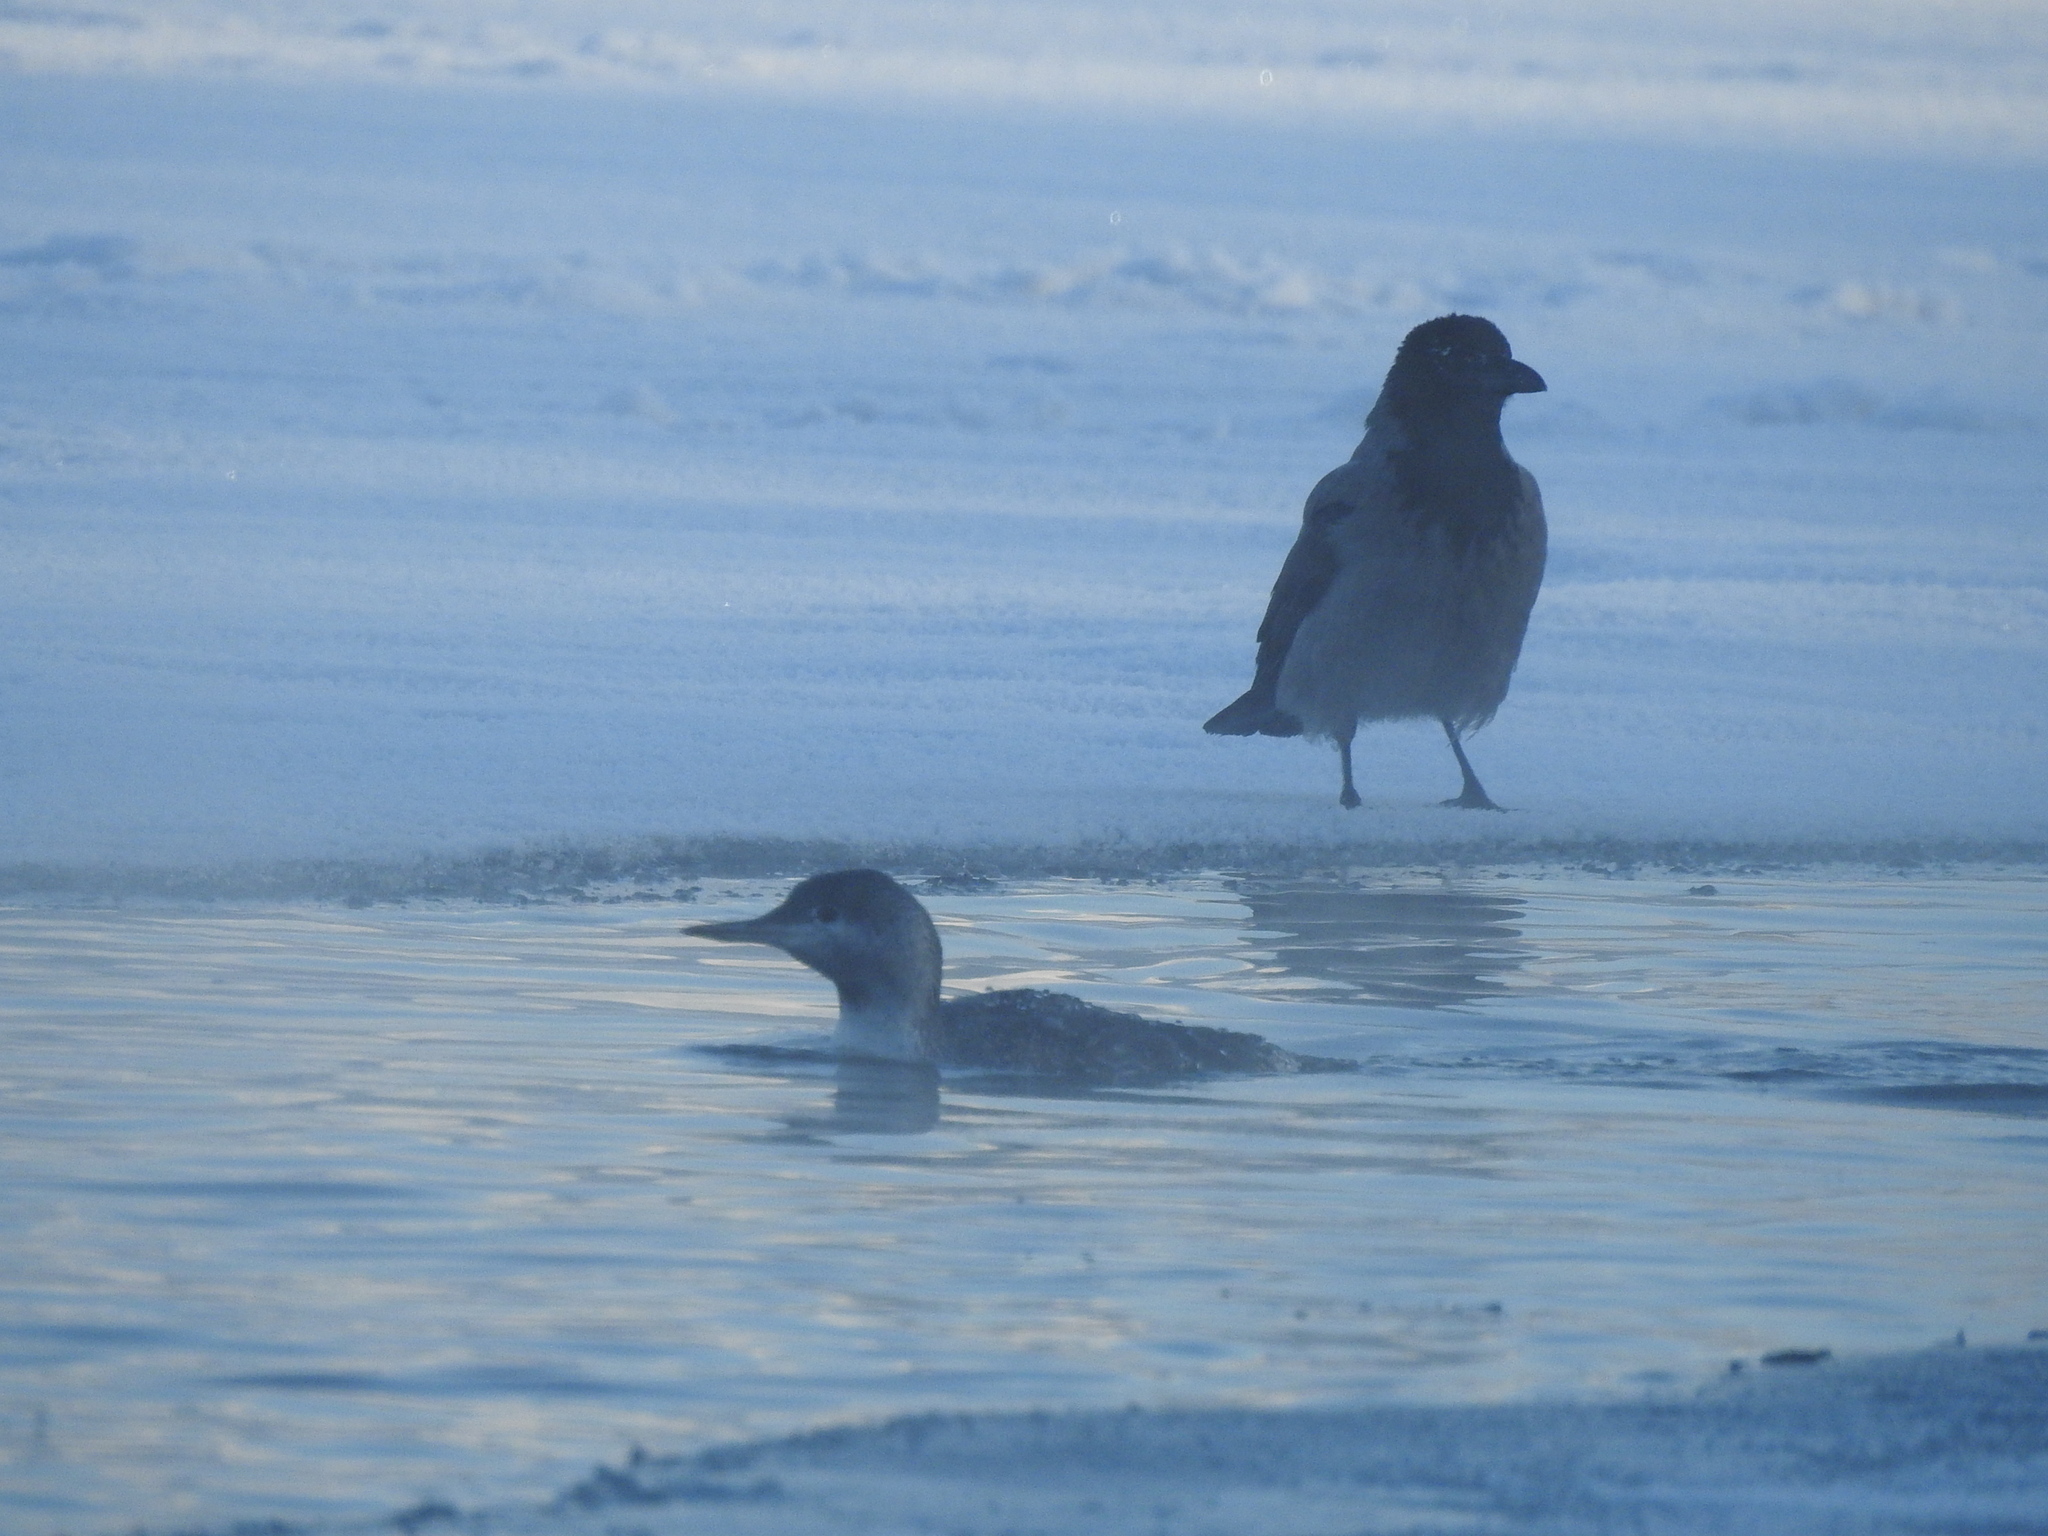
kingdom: Animalia
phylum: Chordata
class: Aves
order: Gaviiformes
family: Gaviidae
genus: Gavia
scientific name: Gavia stellata
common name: Red-throated loon
